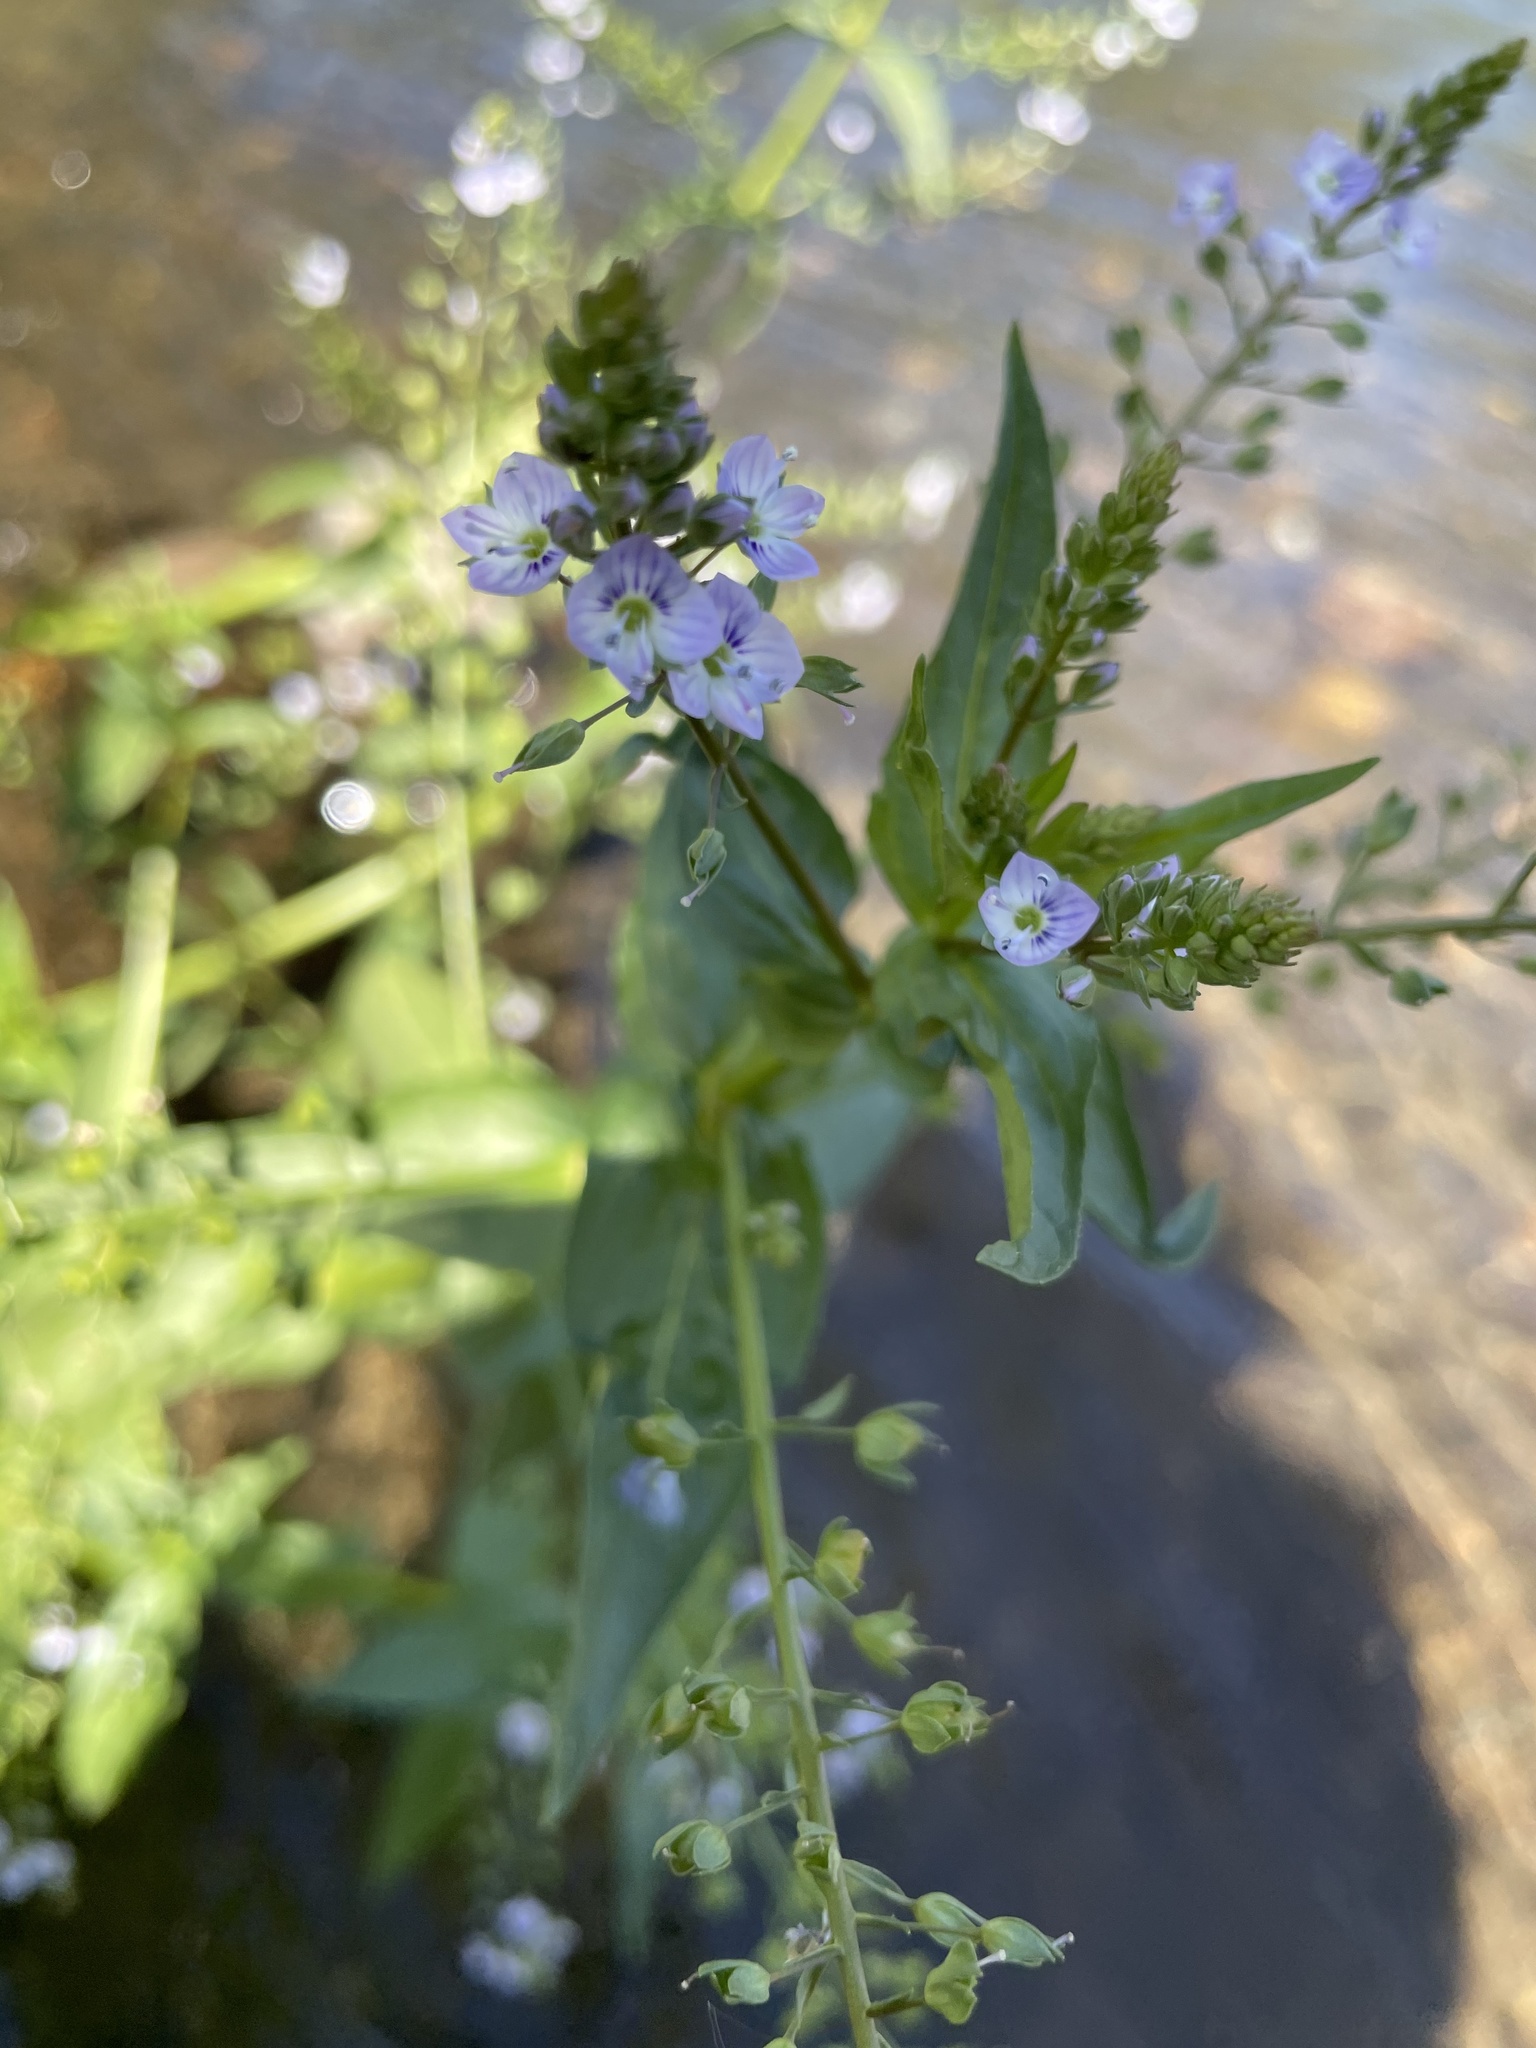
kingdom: Plantae
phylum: Tracheophyta
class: Magnoliopsida
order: Lamiales
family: Plantaginaceae
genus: Veronica
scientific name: Veronica anagallis-aquatica
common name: Water speedwell
